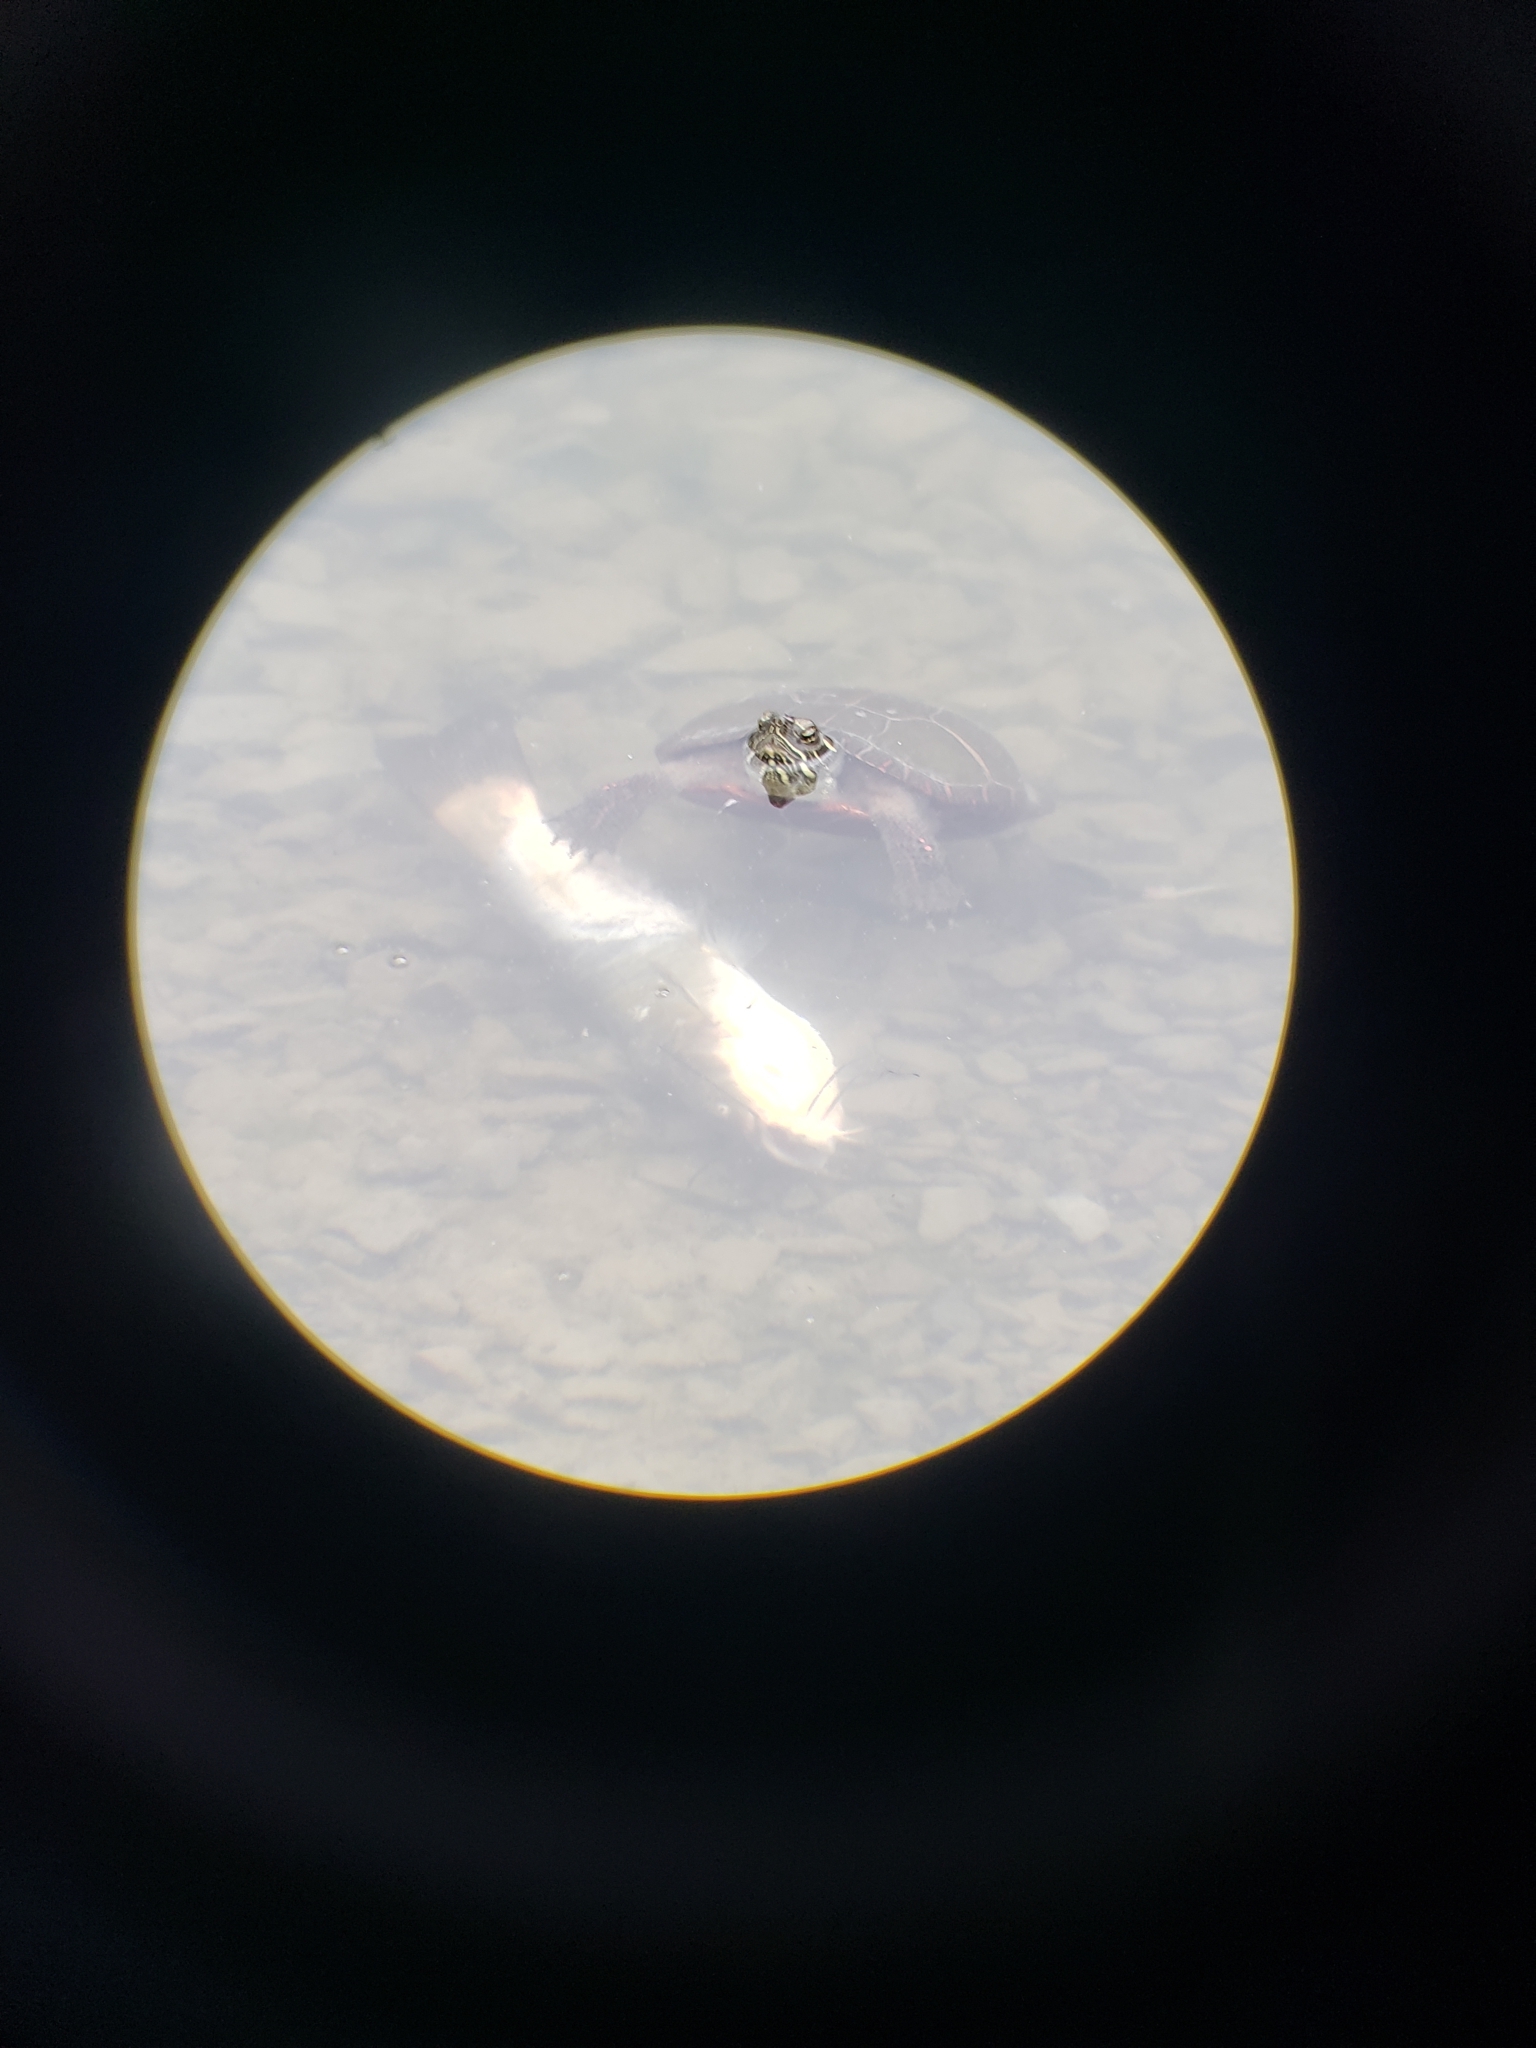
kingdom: Animalia
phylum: Chordata
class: Testudines
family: Emydidae
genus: Chrysemys
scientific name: Chrysemys picta
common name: Painted turtle
